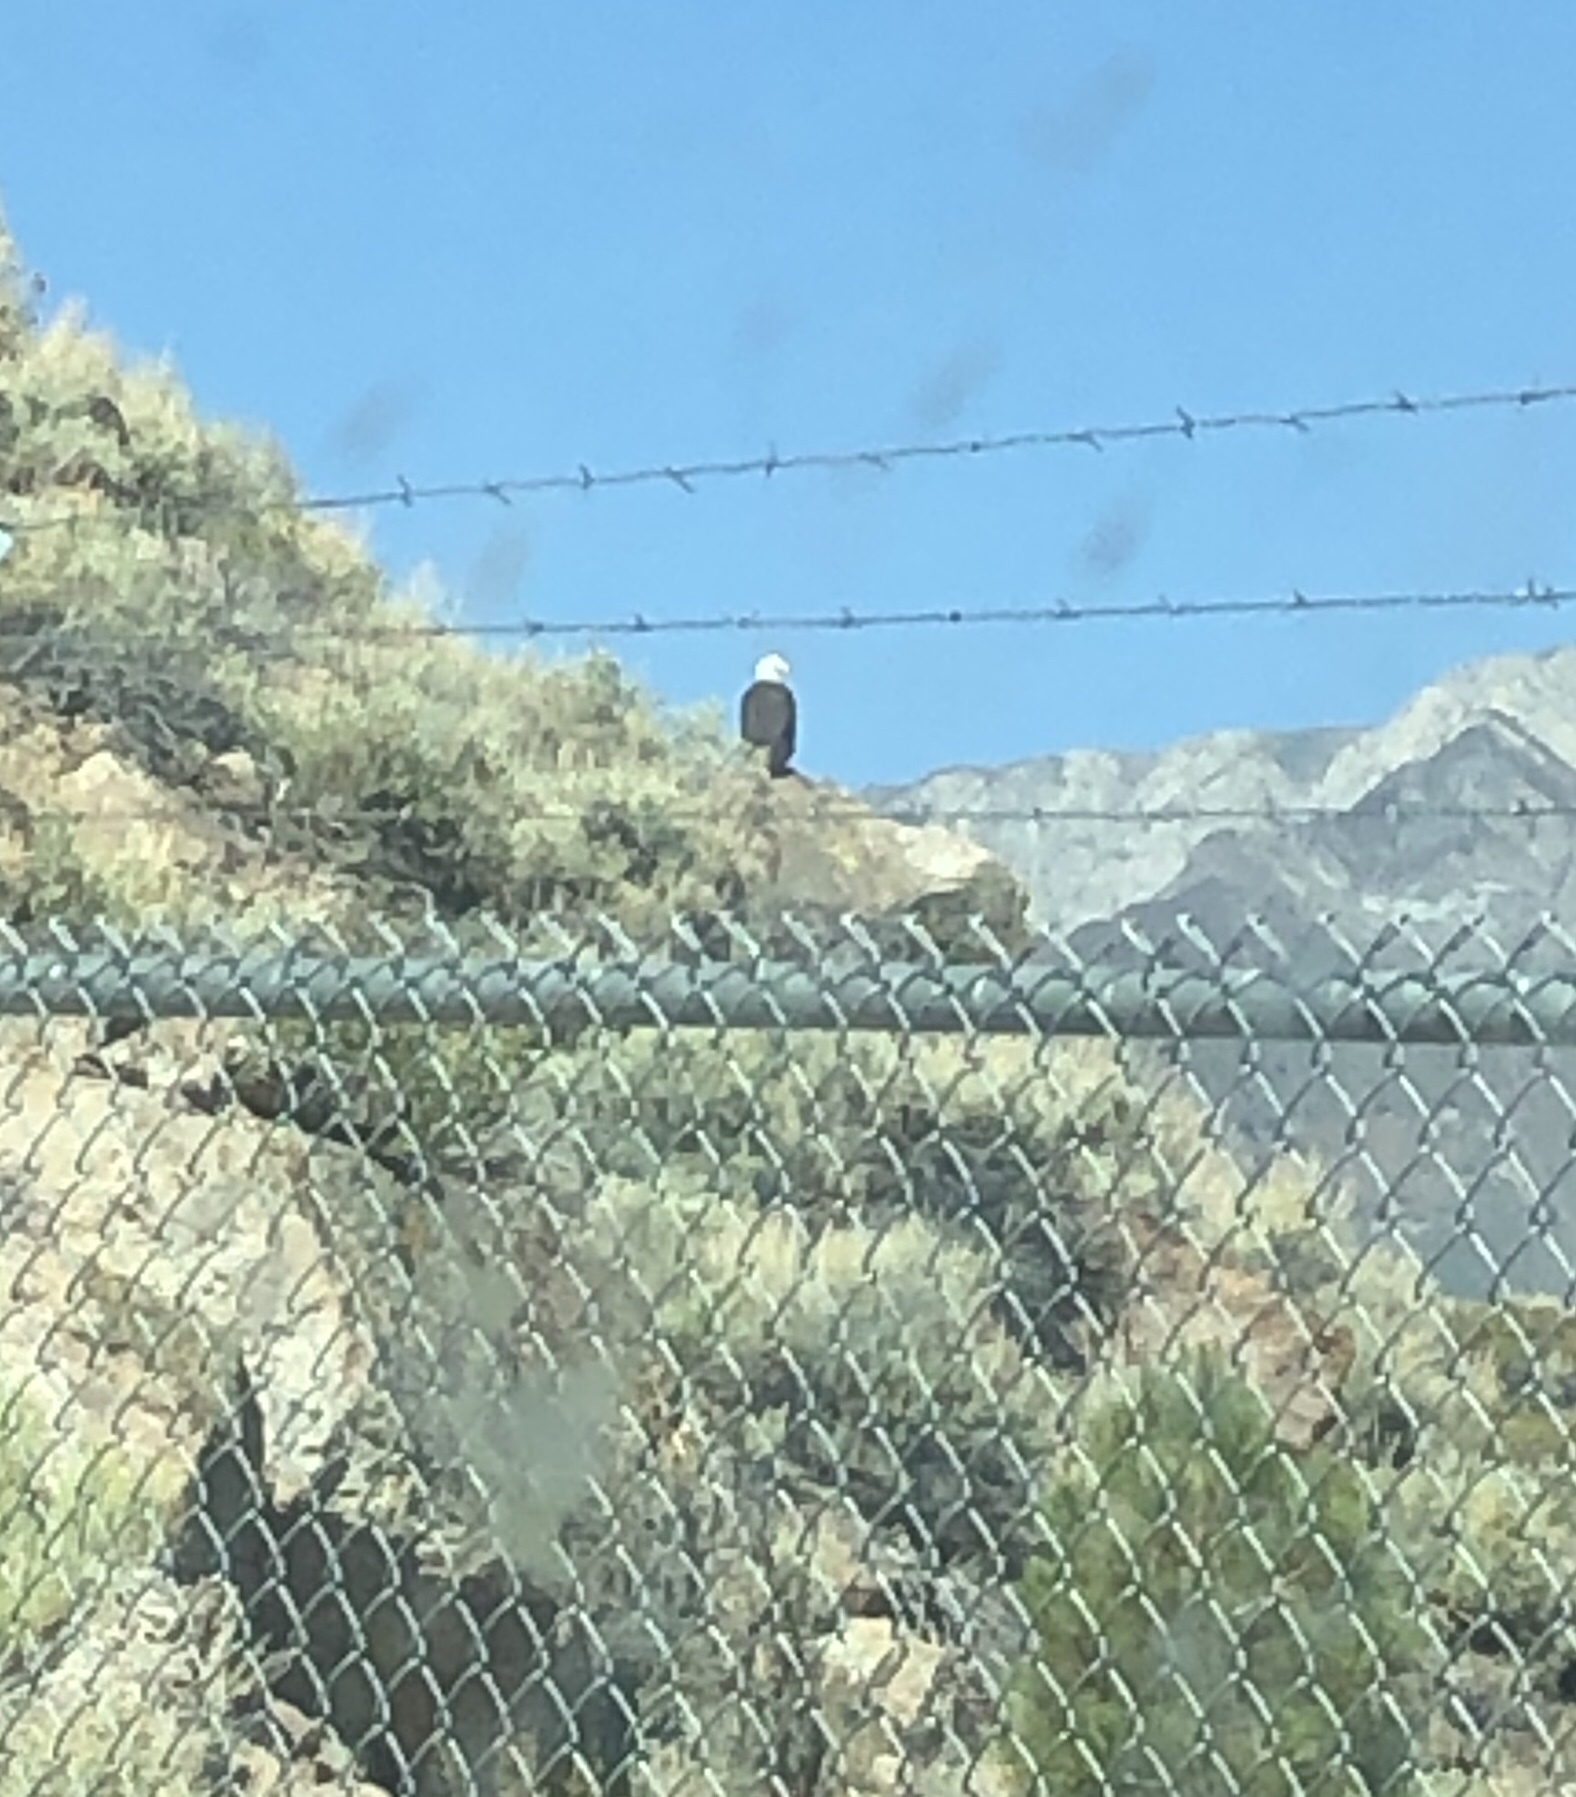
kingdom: Animalia
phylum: Chordata
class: Aves
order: Accipitriformes
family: Accipitridae
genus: Haliaeetus
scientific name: Haliaeetus leucocephalus
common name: Bald eagle
